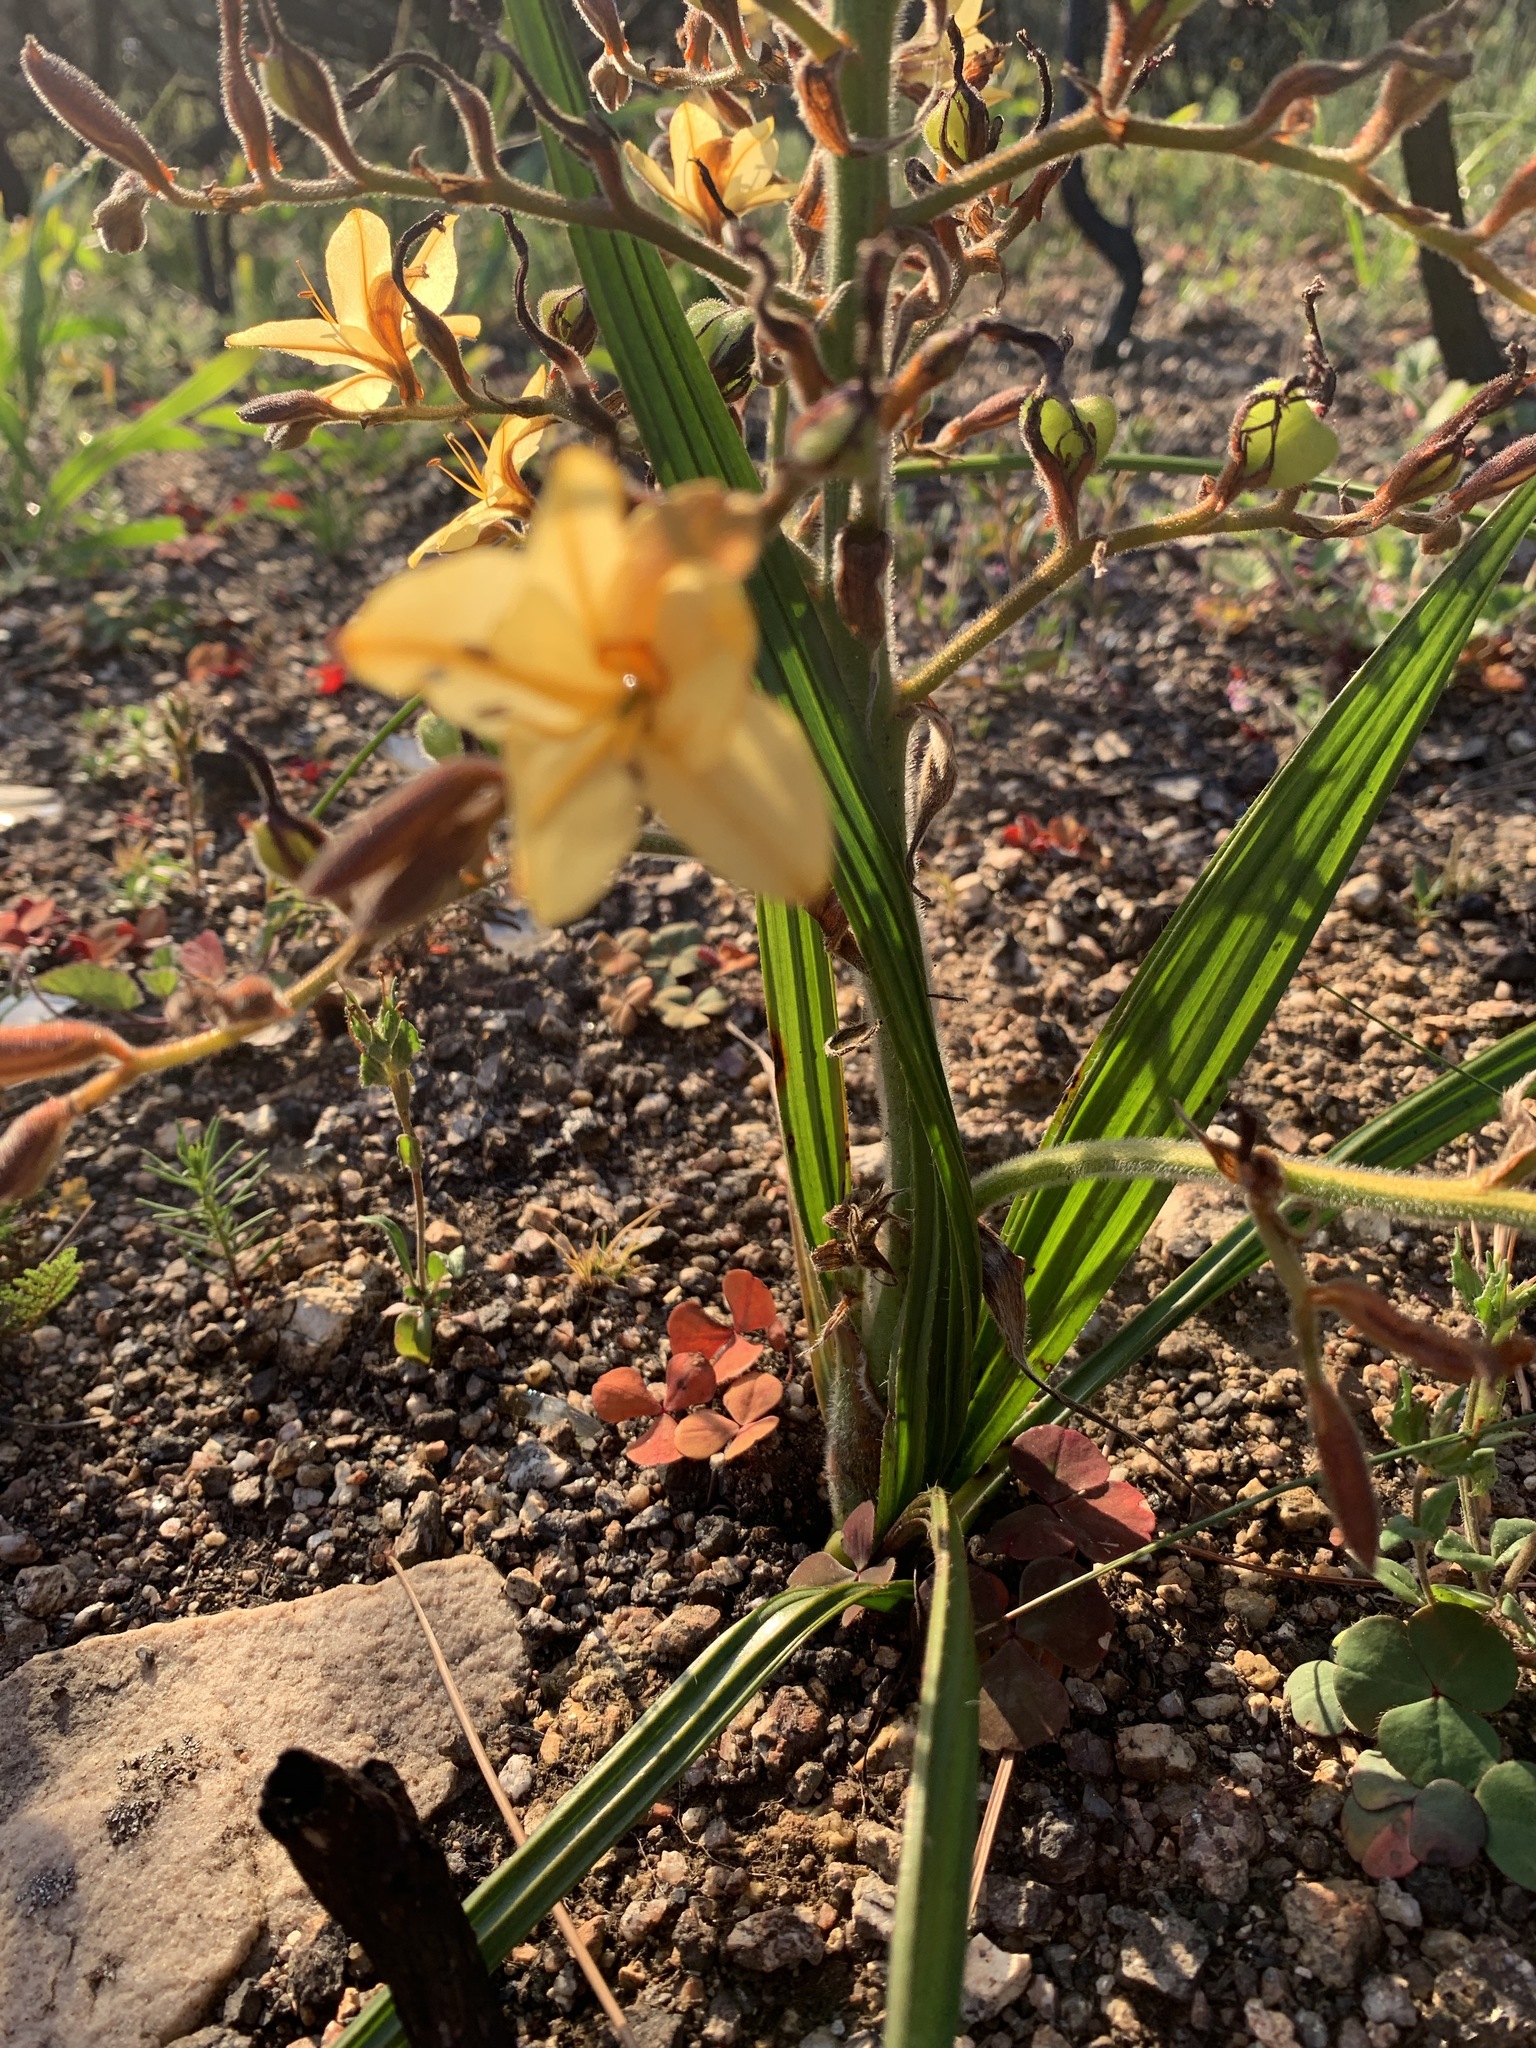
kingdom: Plantae
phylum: Tracheophyta
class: Liliopsida
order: Commelinales
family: Haemodoraceae
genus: Wachendorfia
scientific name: Wachendorfia paniculata
